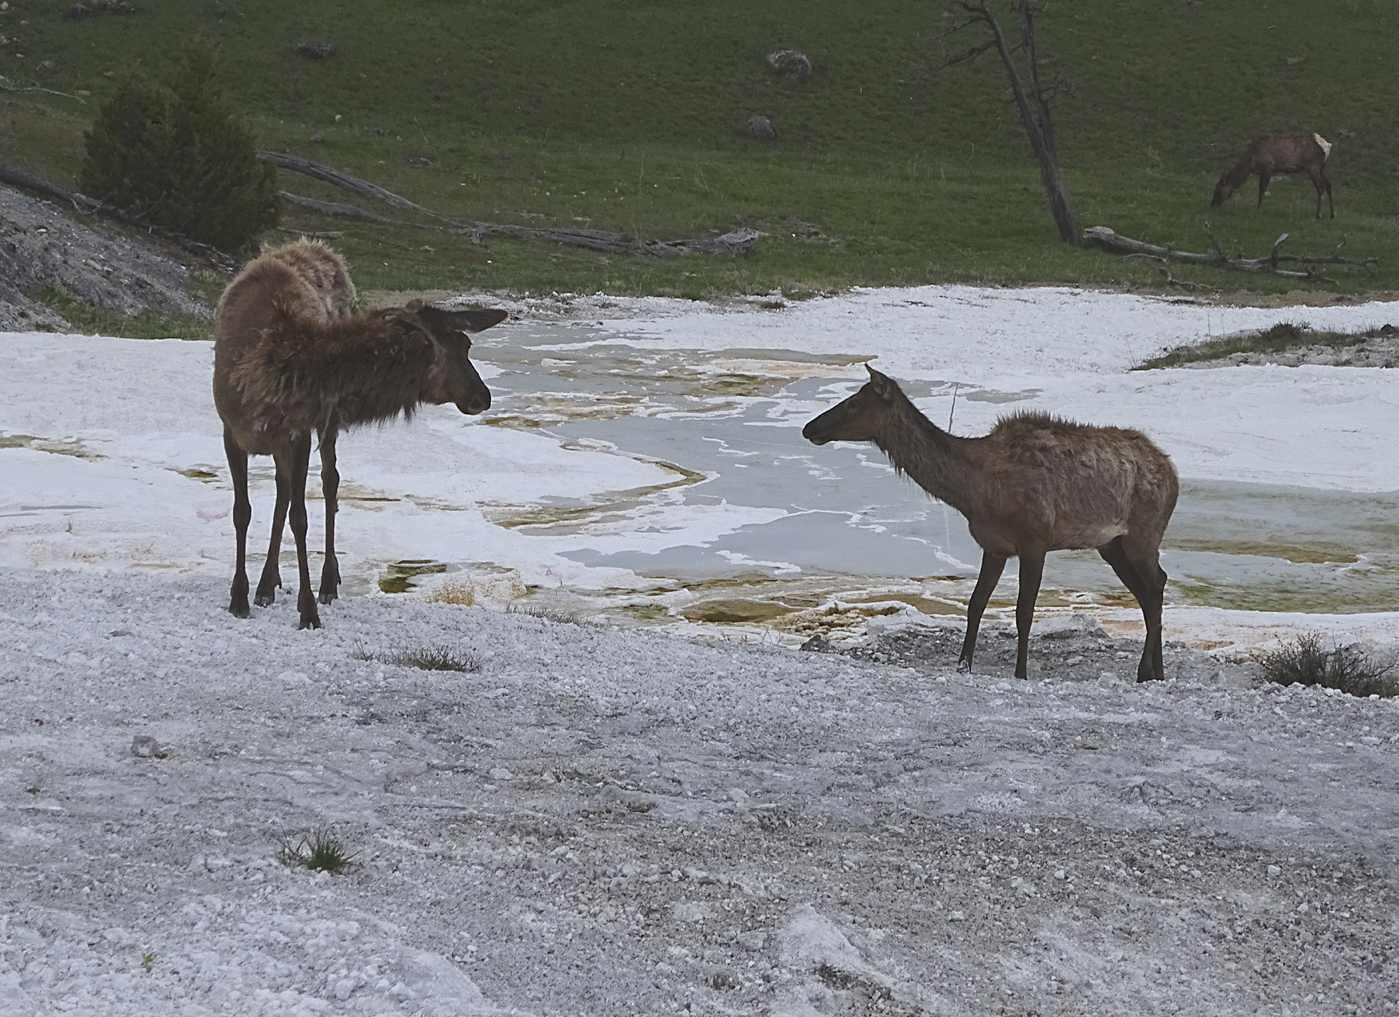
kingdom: Animalia
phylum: Chordata
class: Mammalia
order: Artiodactyla
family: Cervidae
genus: Cervus
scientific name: Cervus elaphus
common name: Red deer
